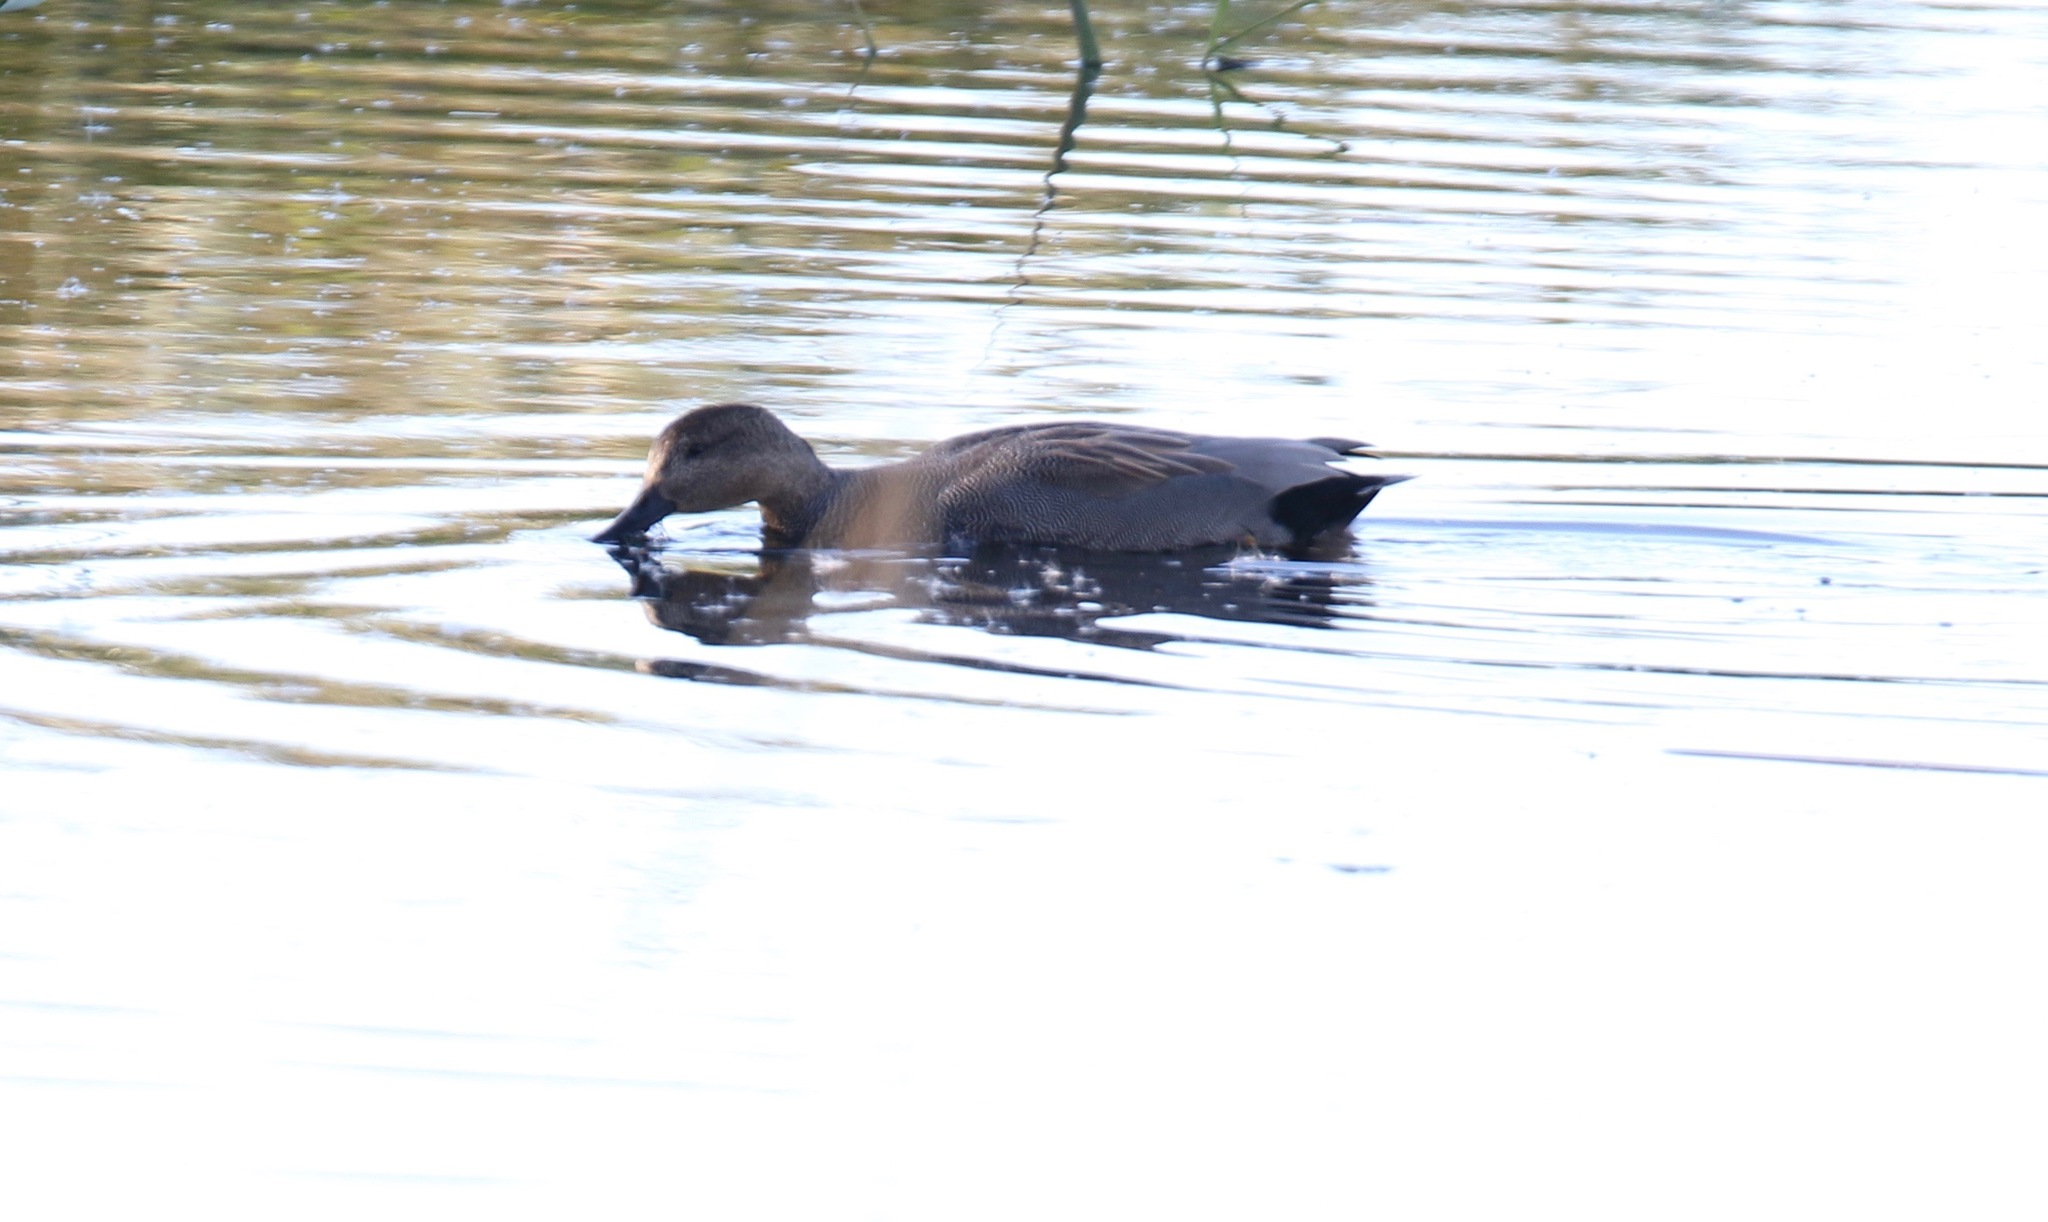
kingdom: Animalia
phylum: Chordata
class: Aves
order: Anseriformes
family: Anatidae
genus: Mareca
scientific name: Mareca strepera
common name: Gadwall
